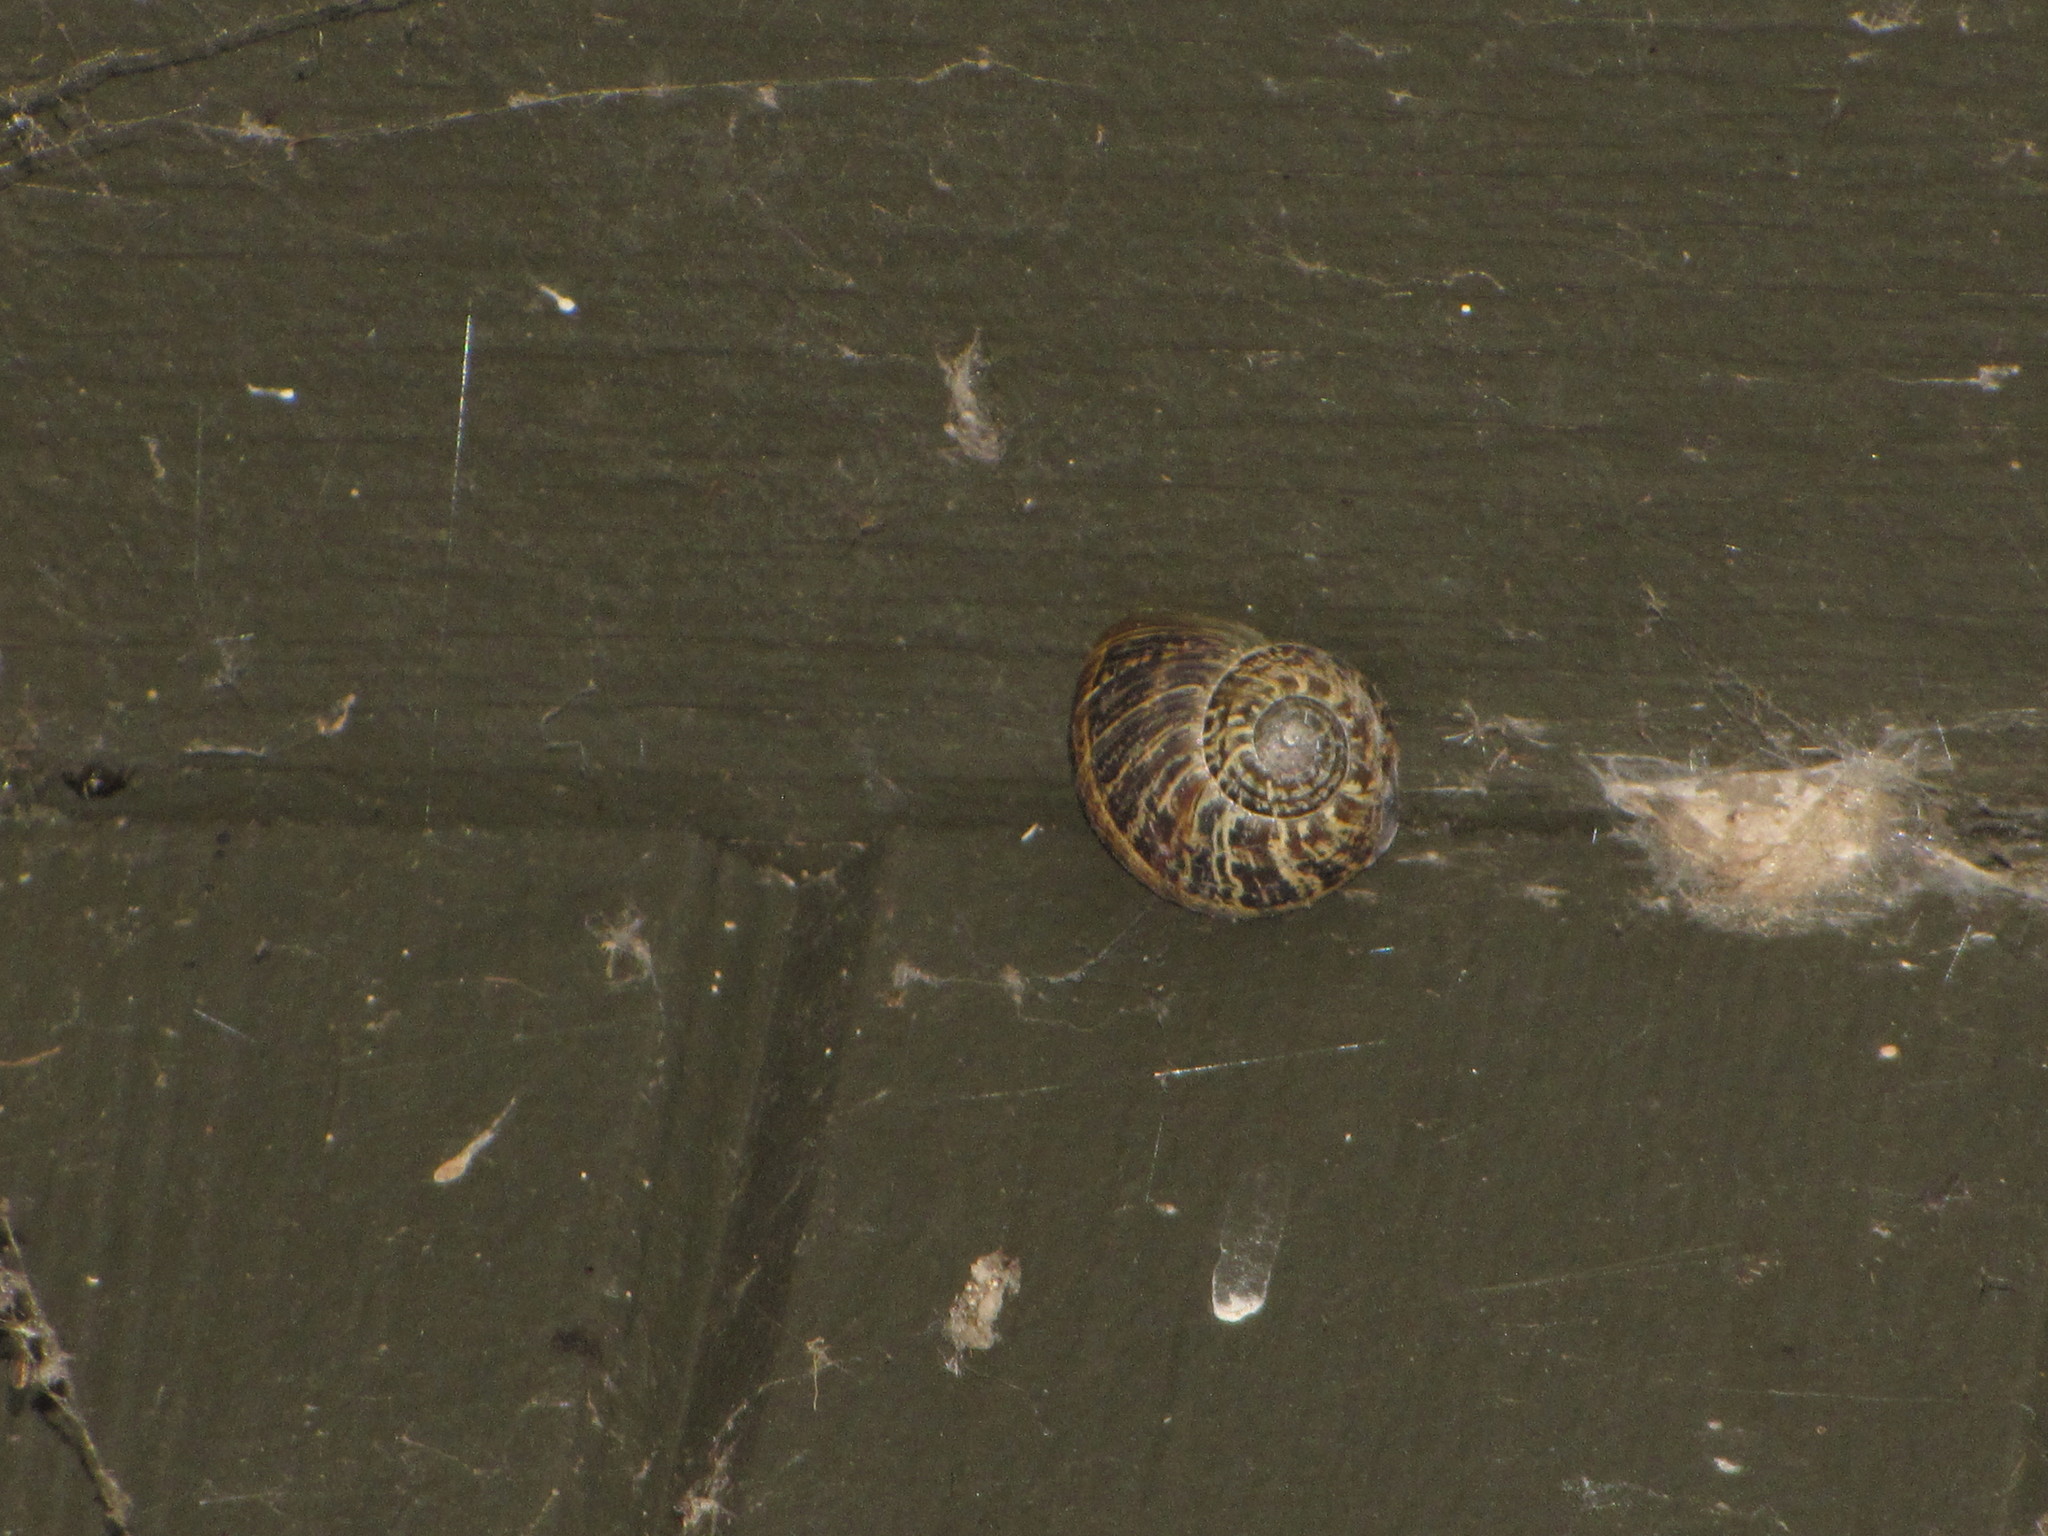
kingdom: Animalia
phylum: Mollusca
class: Gastropoda
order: Stylommatophora
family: Helicidae
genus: Cornu
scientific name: Cornu aspersum
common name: Brown garden snail
